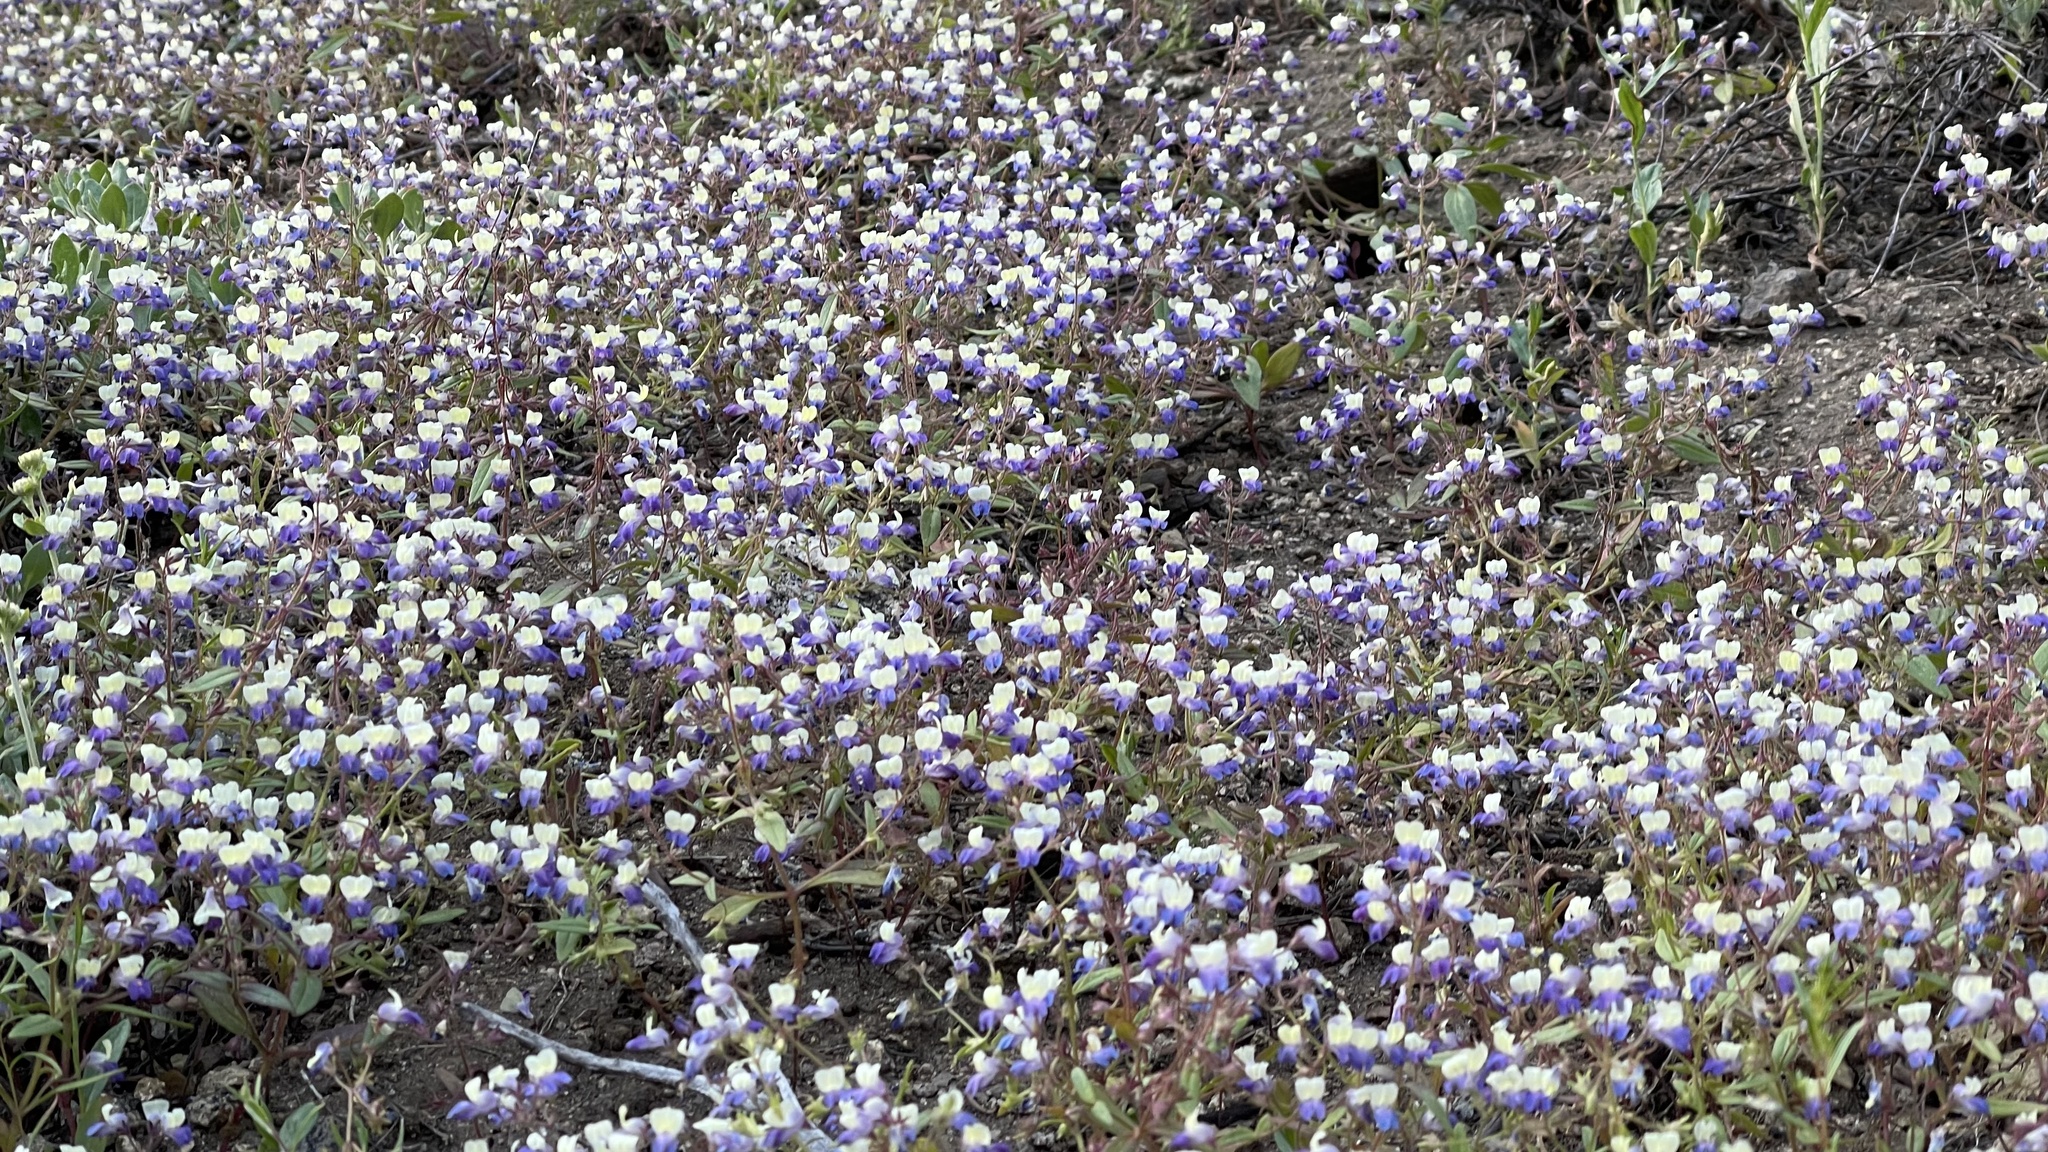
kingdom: Plantae
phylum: Tracheophyta
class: Magnoliopsida
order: Lamiales
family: Plantaginaceae
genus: Collinsia
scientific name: Collinsia torreyi
